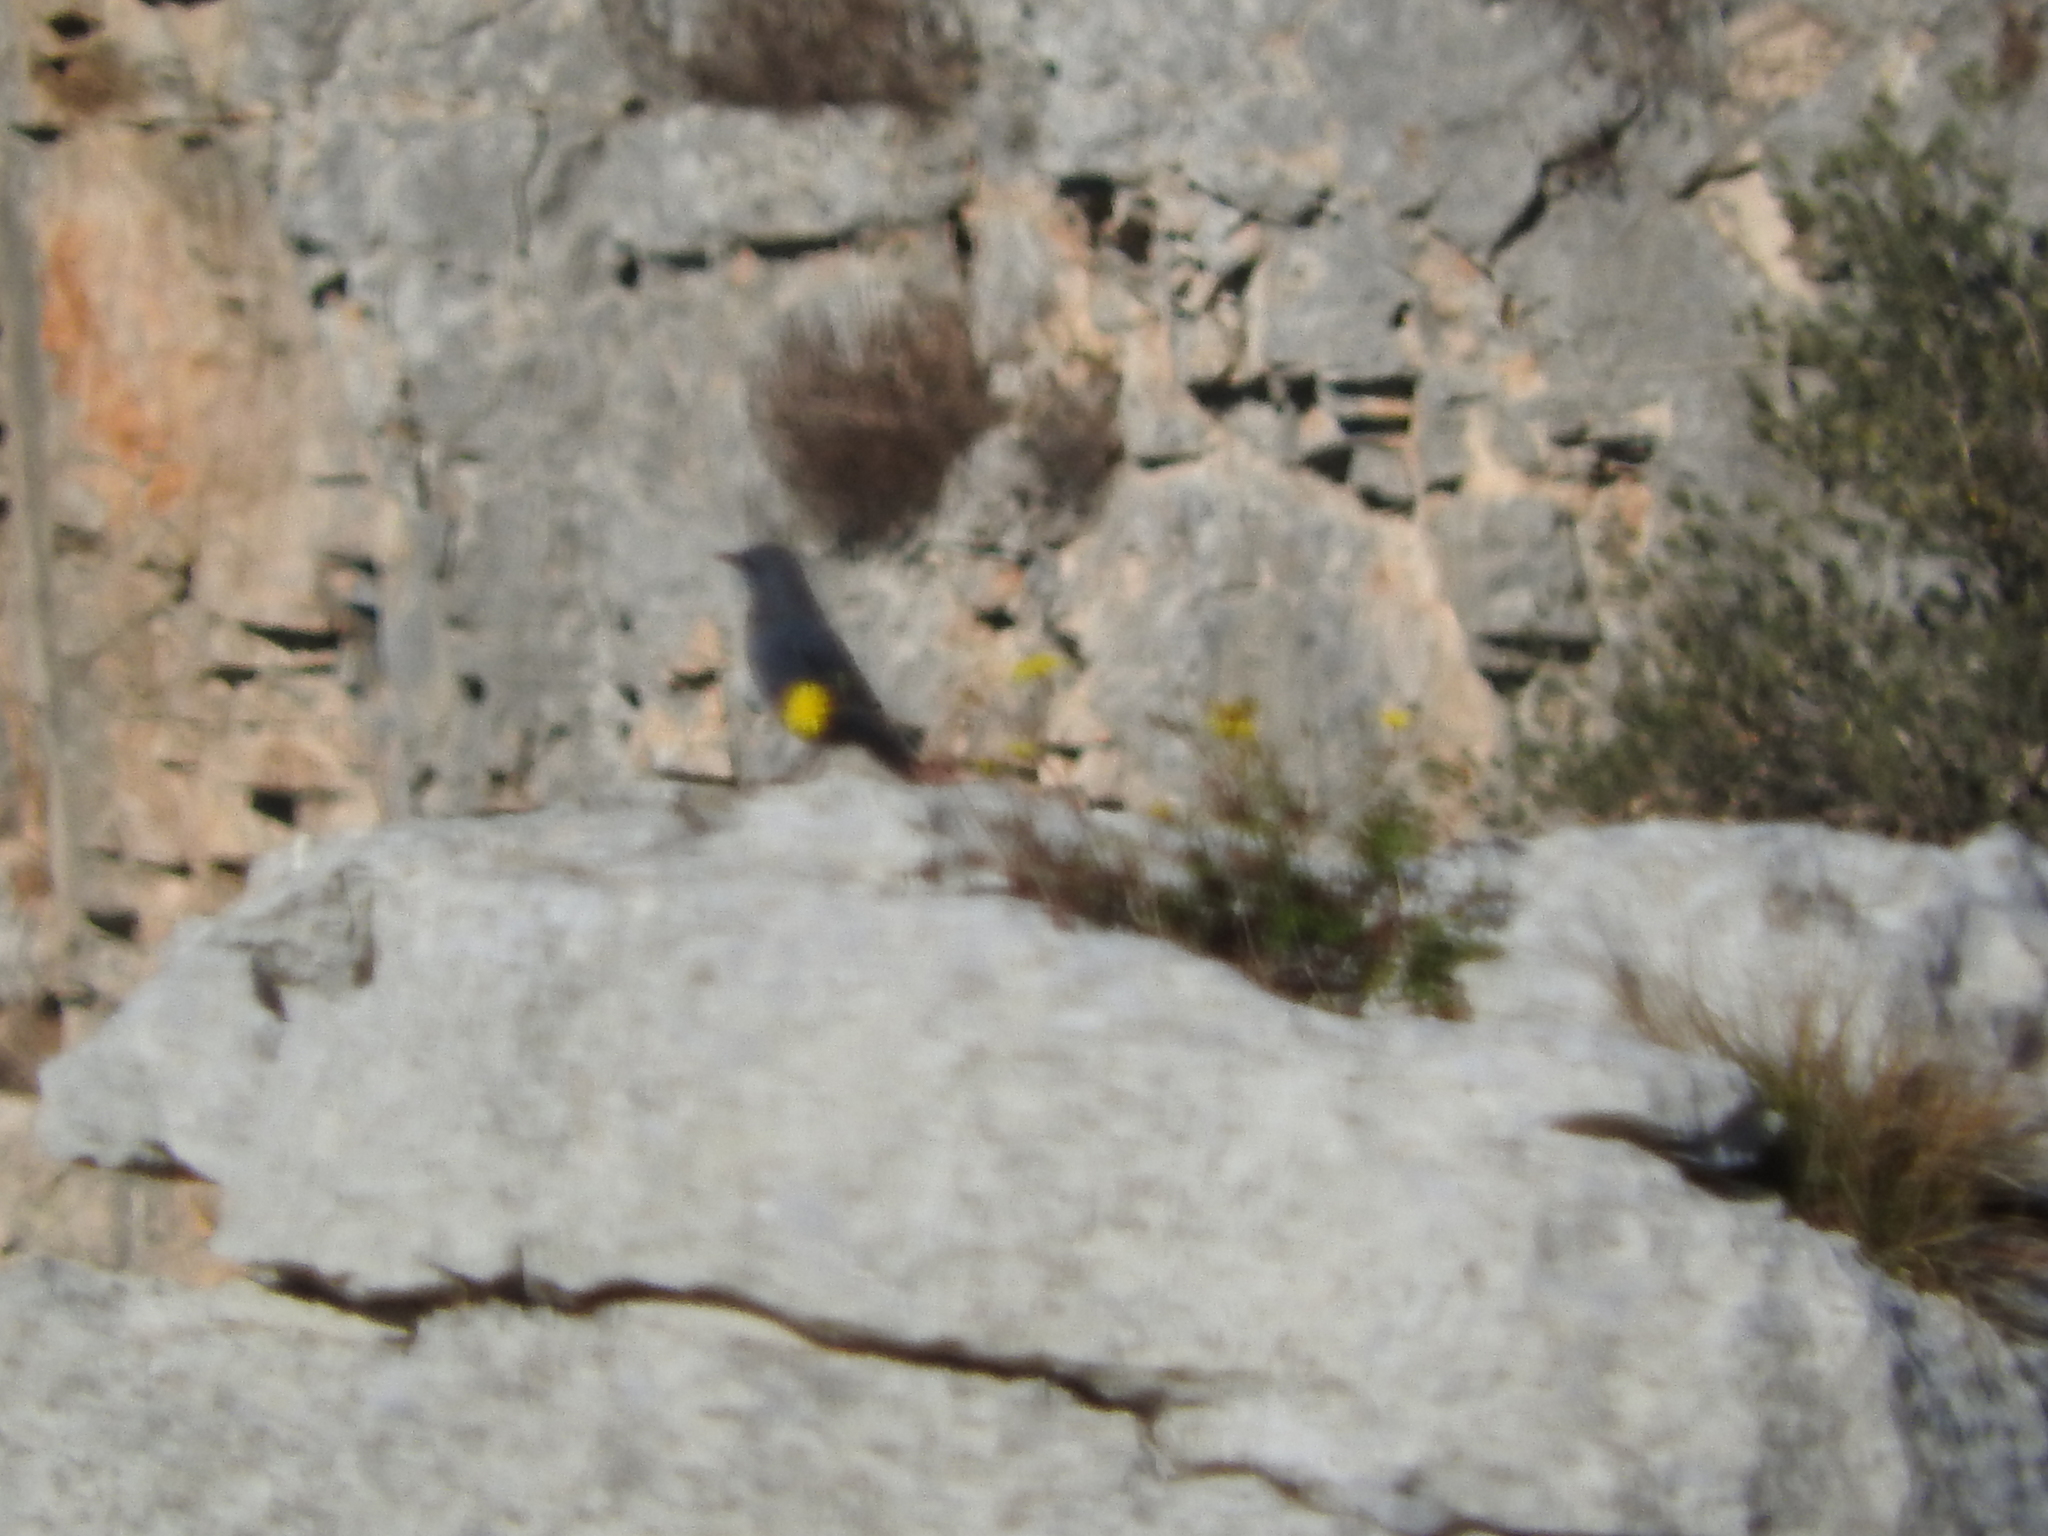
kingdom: Animalia
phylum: Chordata
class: Aves
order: Passeriformes
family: Muscicapidae
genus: Monticola
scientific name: Monticola solitarius
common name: Blue rock thrush
